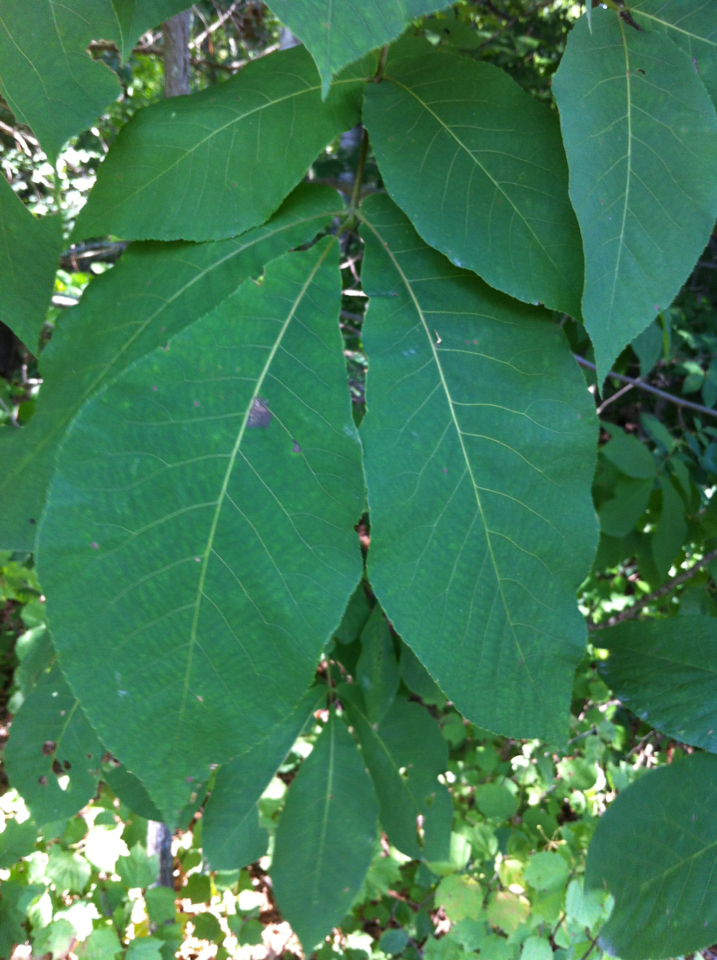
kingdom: Plantae
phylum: Tracheophyta
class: Magnoliopsida
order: Fagales
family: Juglandaceae
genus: Carya
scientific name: Carya ovata
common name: Shagbark hickory
